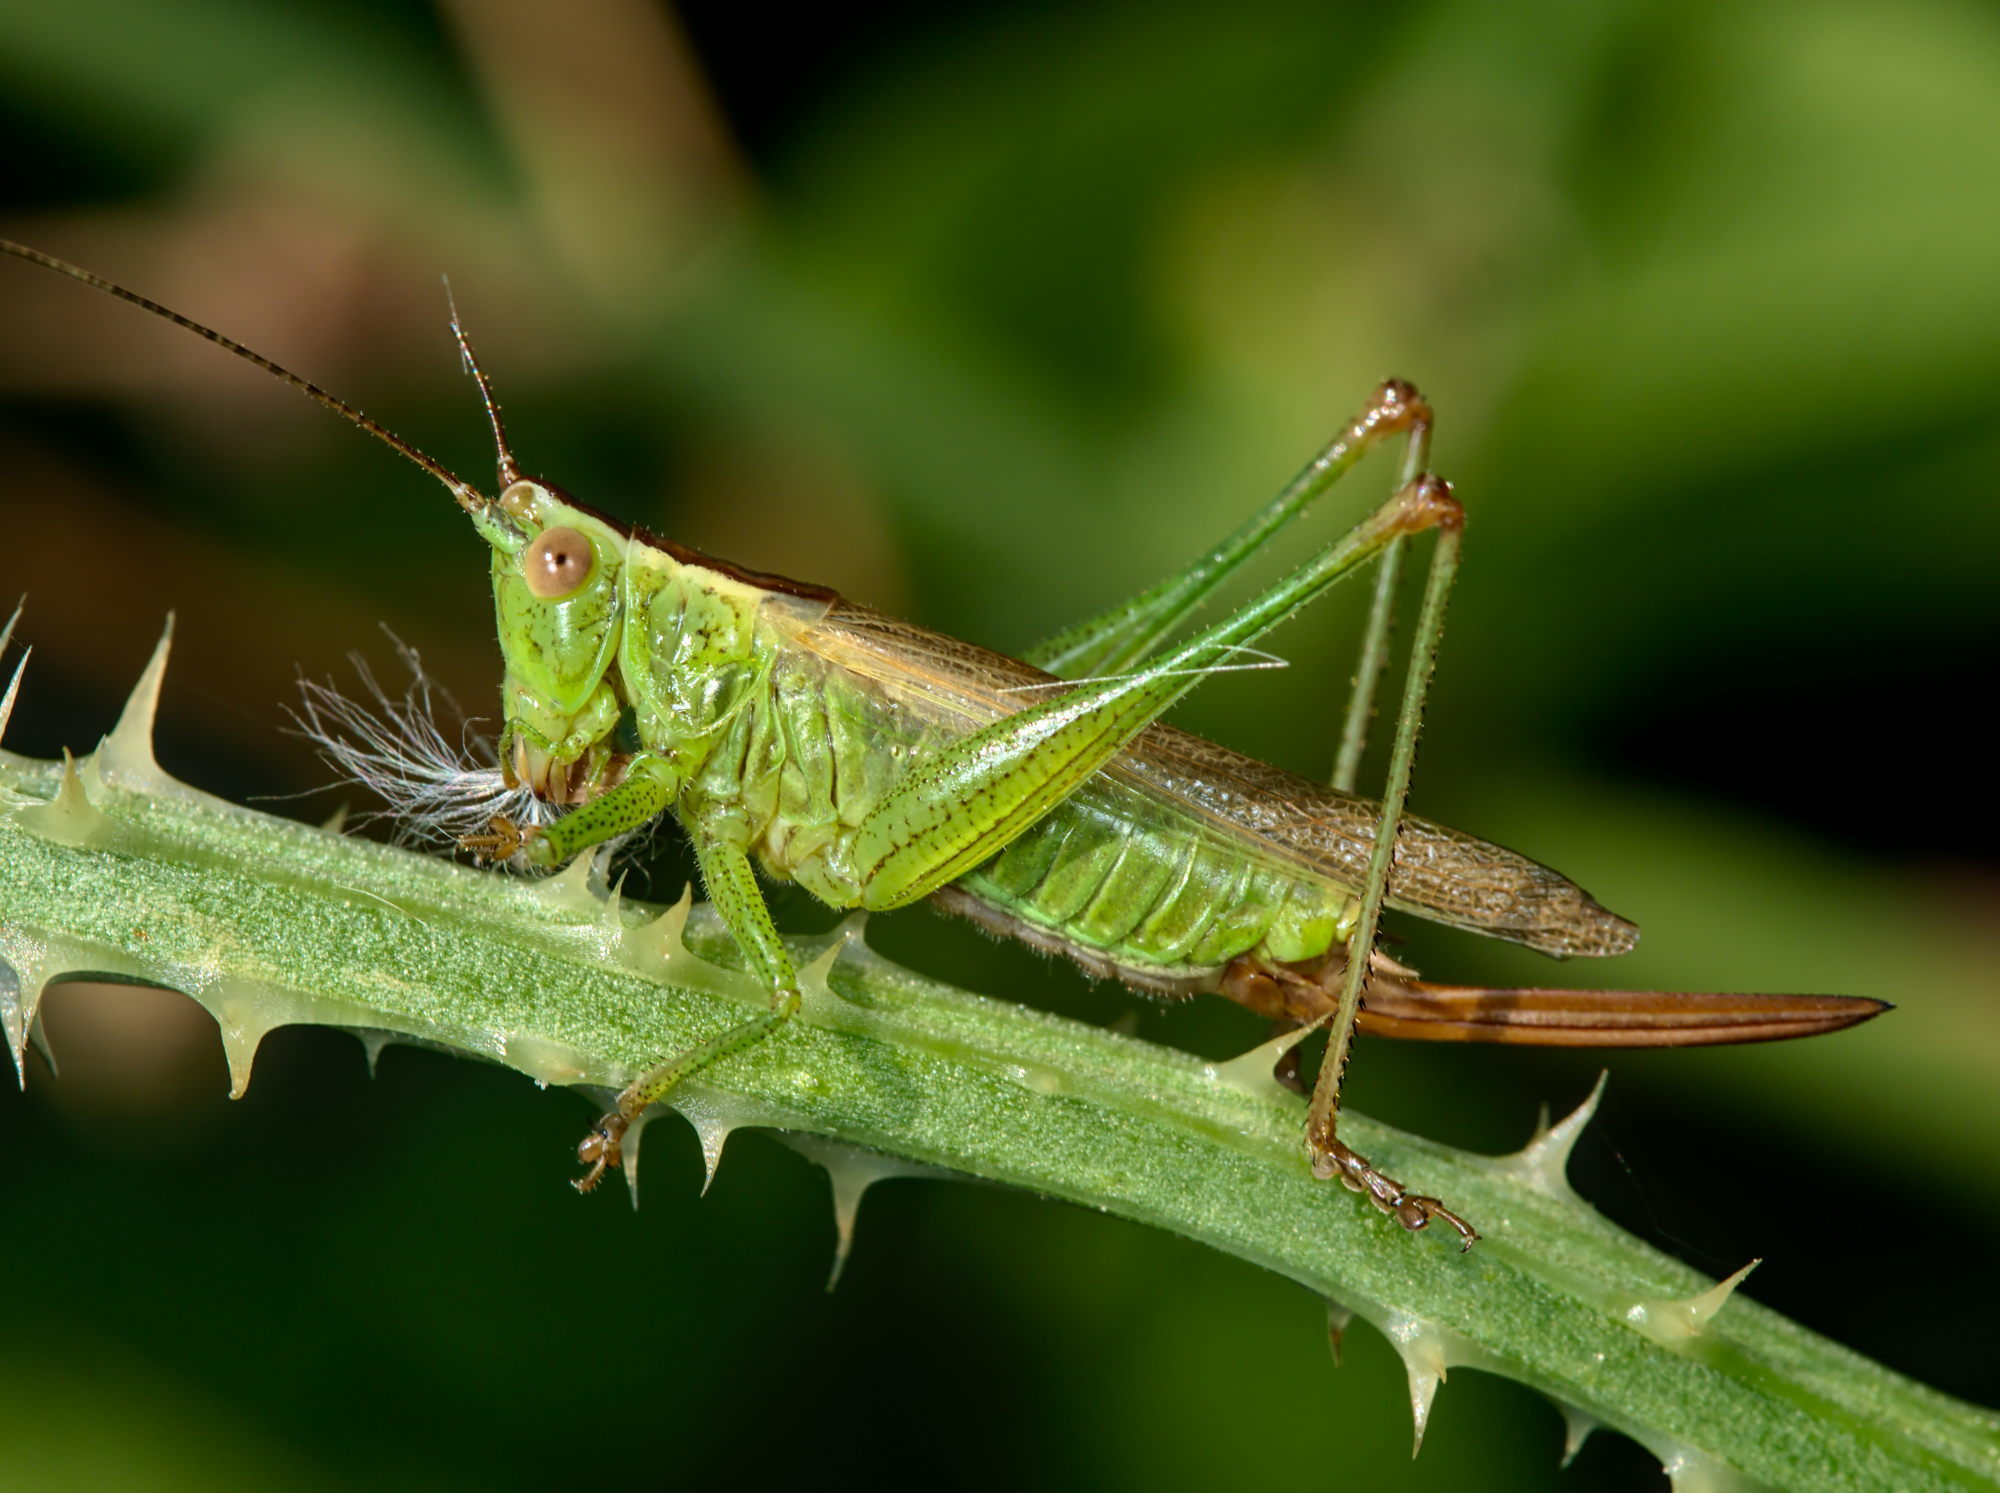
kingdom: Animalia
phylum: Arthropoda
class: Insecta
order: Orthoptera
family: Tettigoniidae
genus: Conocephalus
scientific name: Conocephalus fuscus
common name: Long-winged conehead
